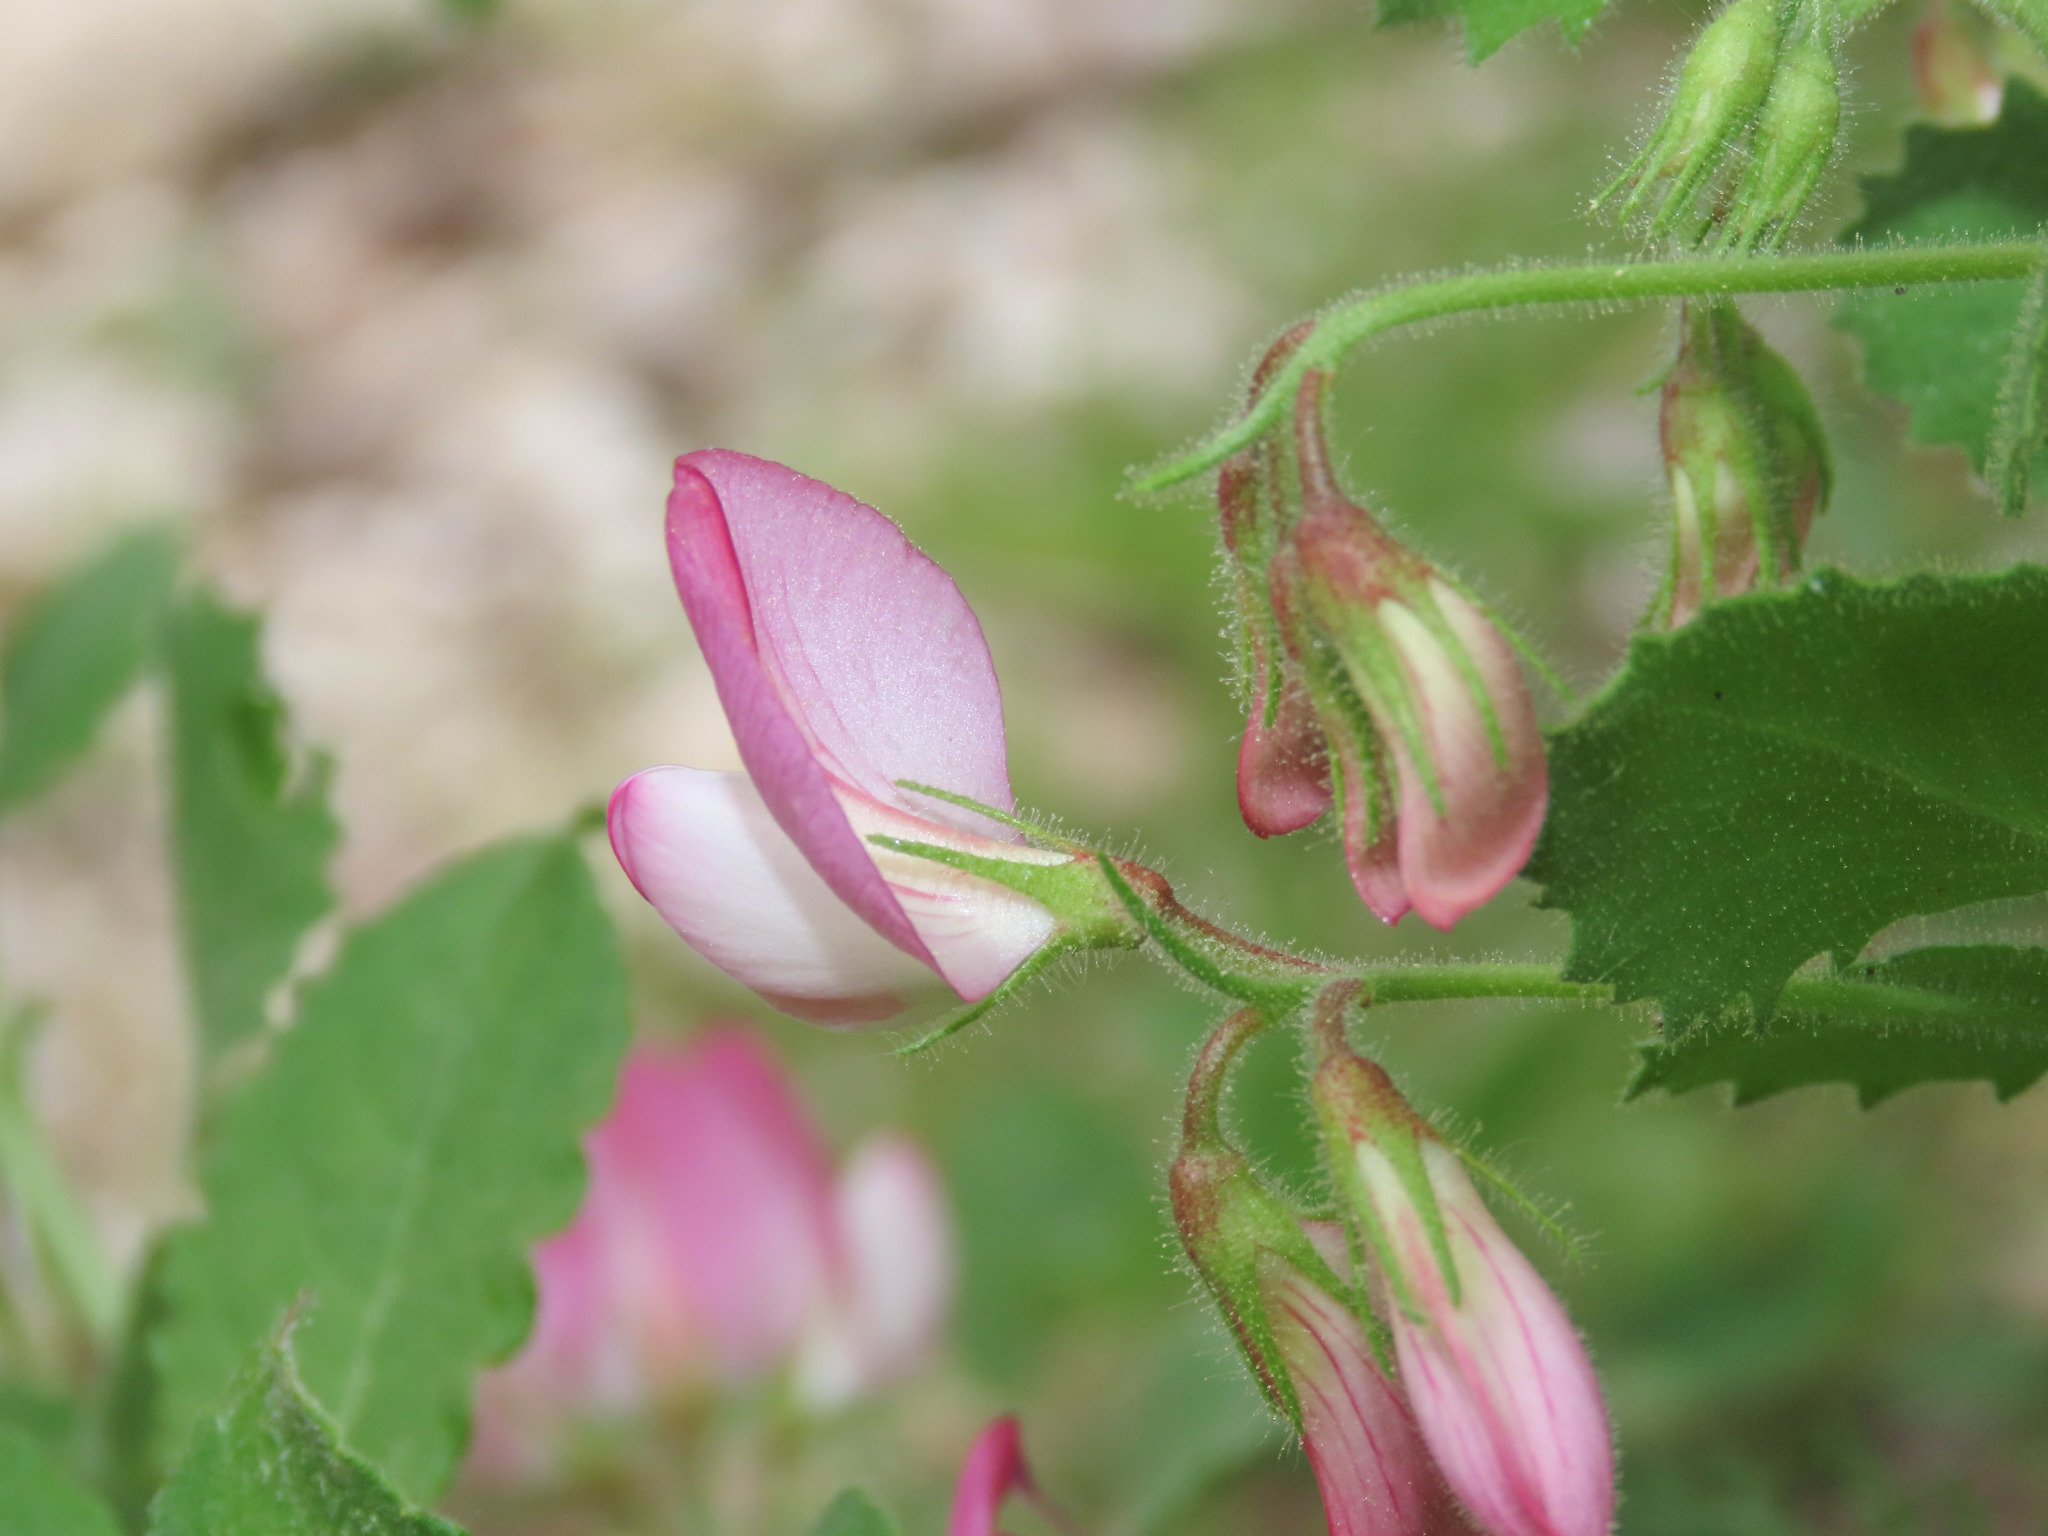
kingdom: Plantae
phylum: Tracheophyta
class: Magnoliopsida
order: Fabales
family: Fabaceae
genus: Ononis
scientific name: Ononis rotundifolia
